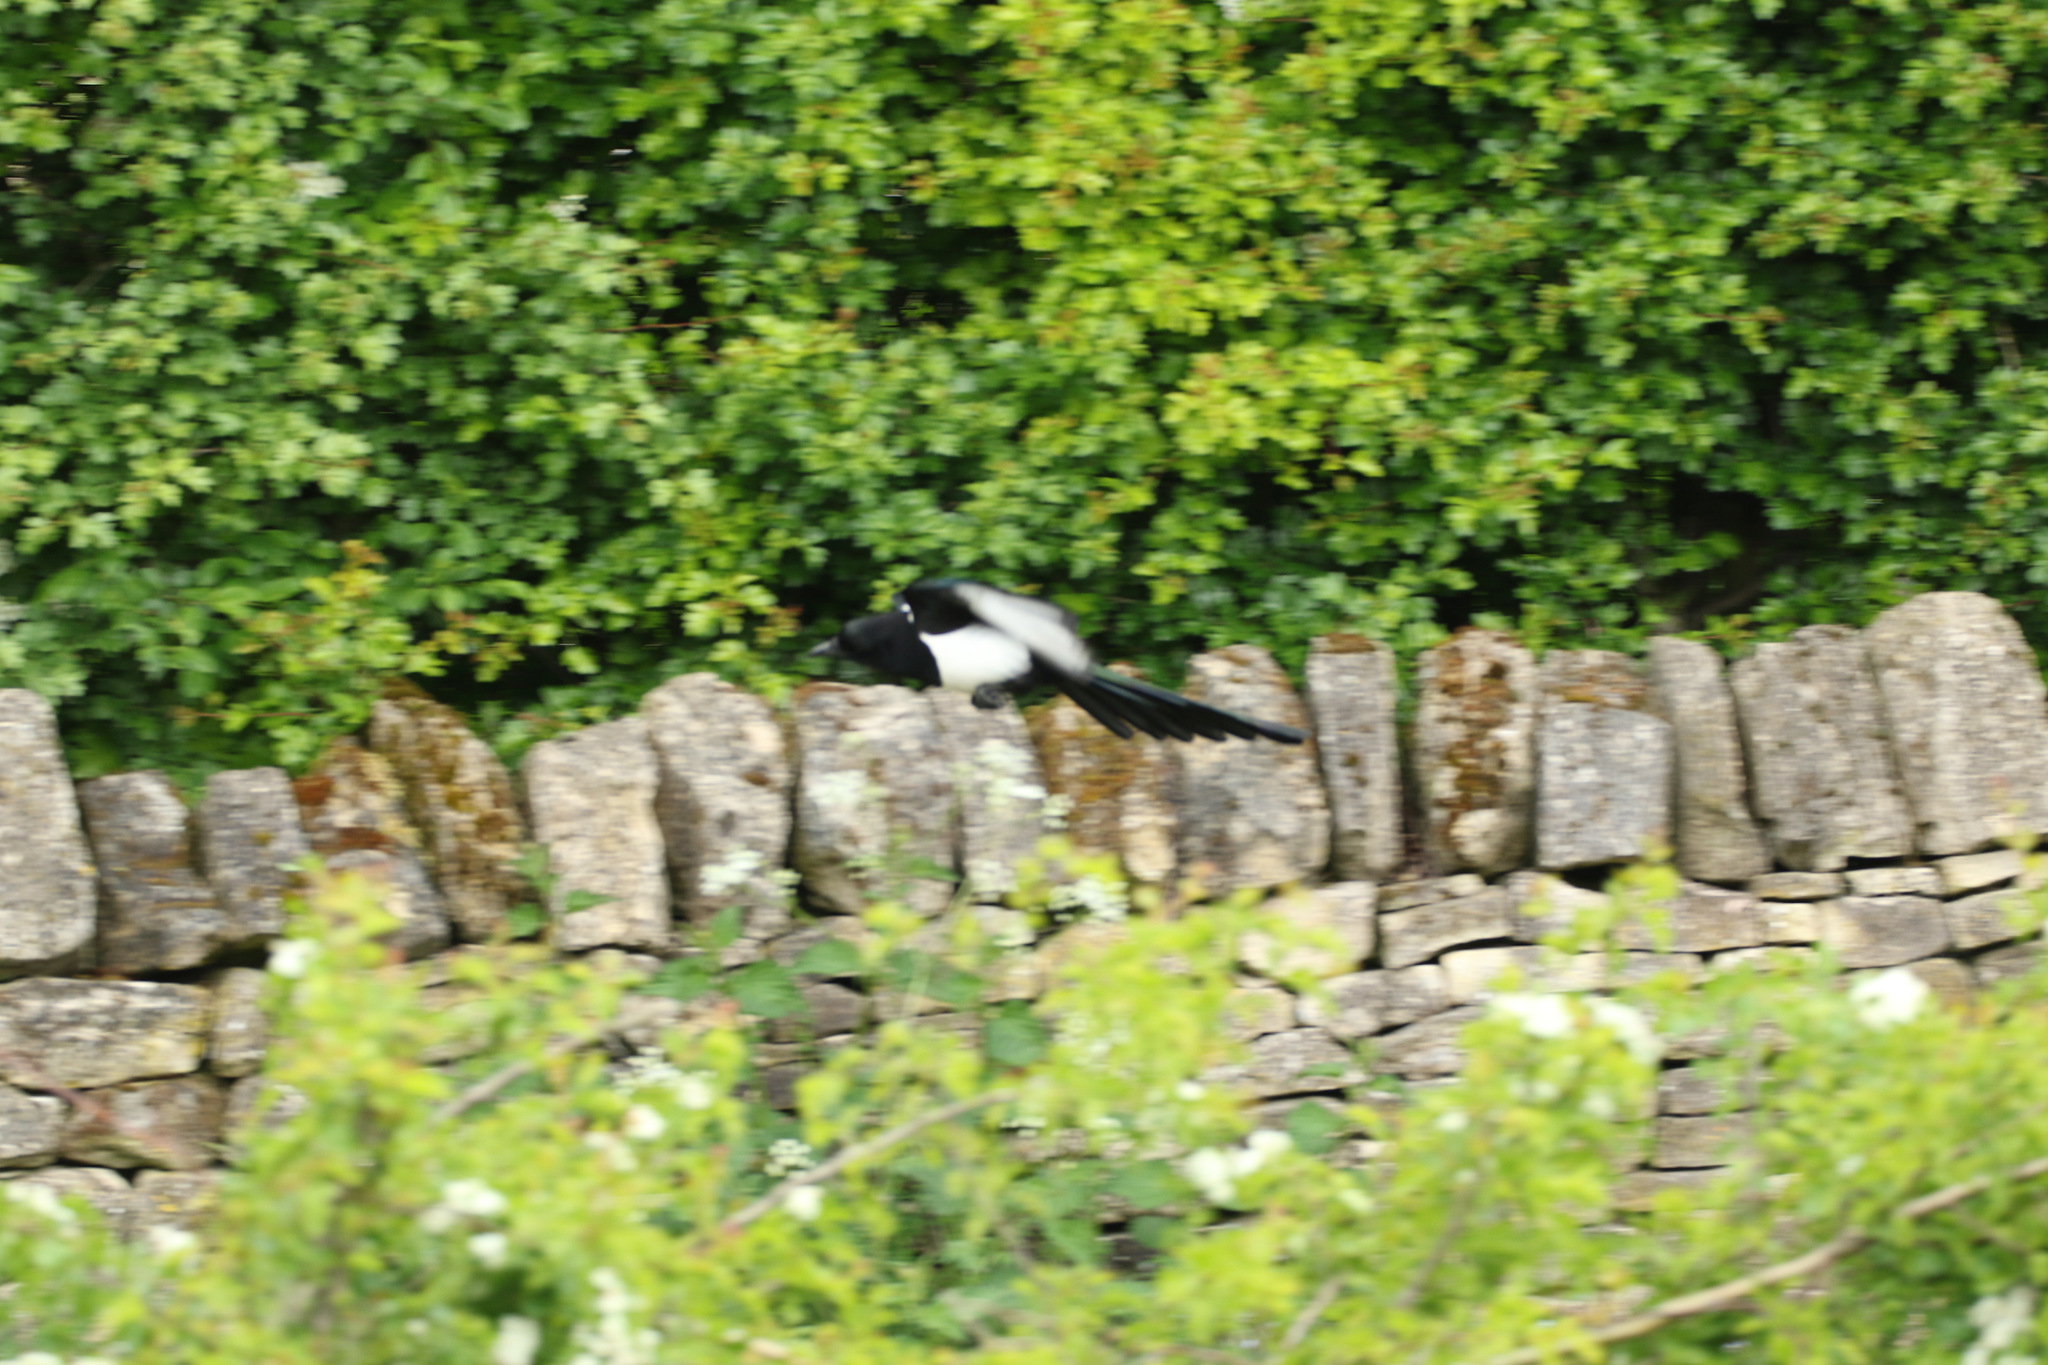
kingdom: Animalia
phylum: Chordata
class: Aves
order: Passeriformes
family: Corvidae
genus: Pica
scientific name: Pica pica
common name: Eurasian magpie
